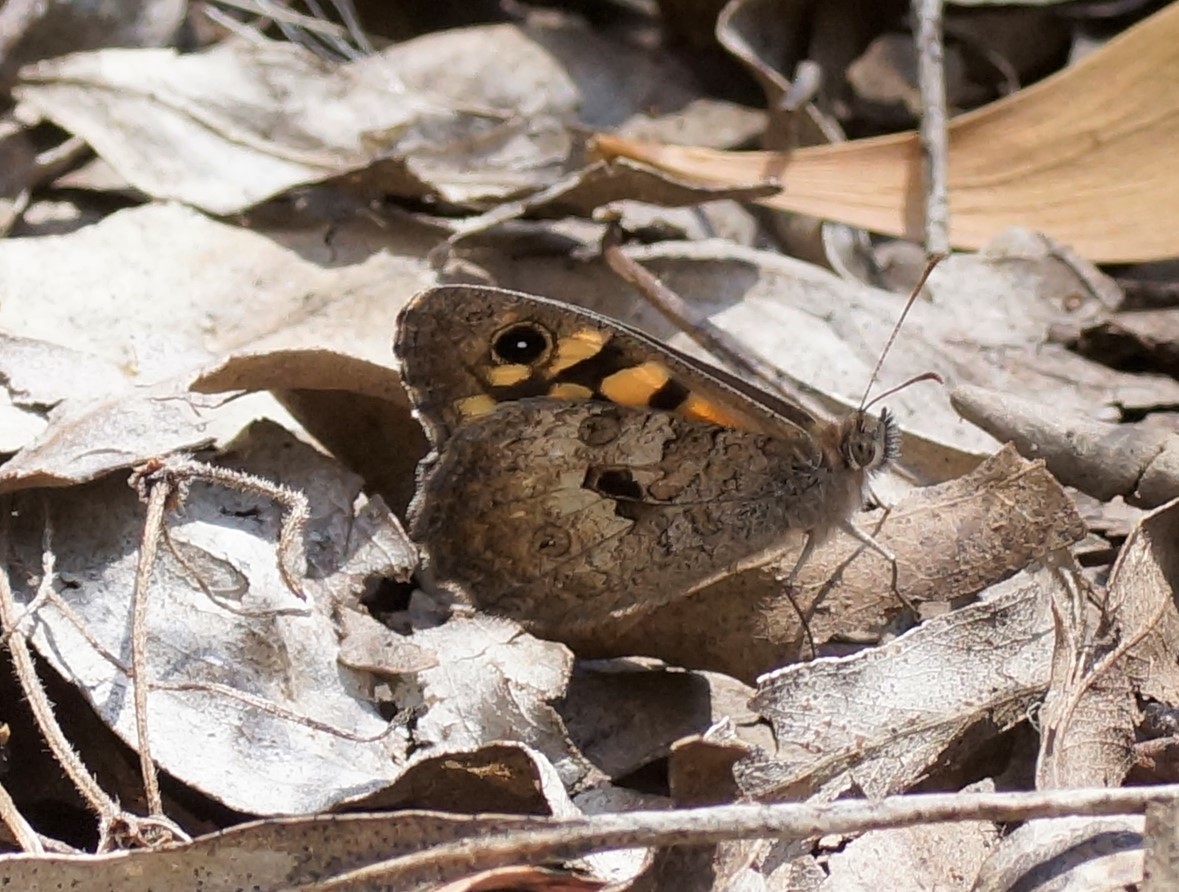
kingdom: Animalia
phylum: Arthropoda
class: Insecta
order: Lepidoptera
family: Nymphalidae
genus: Geitoneura
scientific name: Geitoneura klugii
